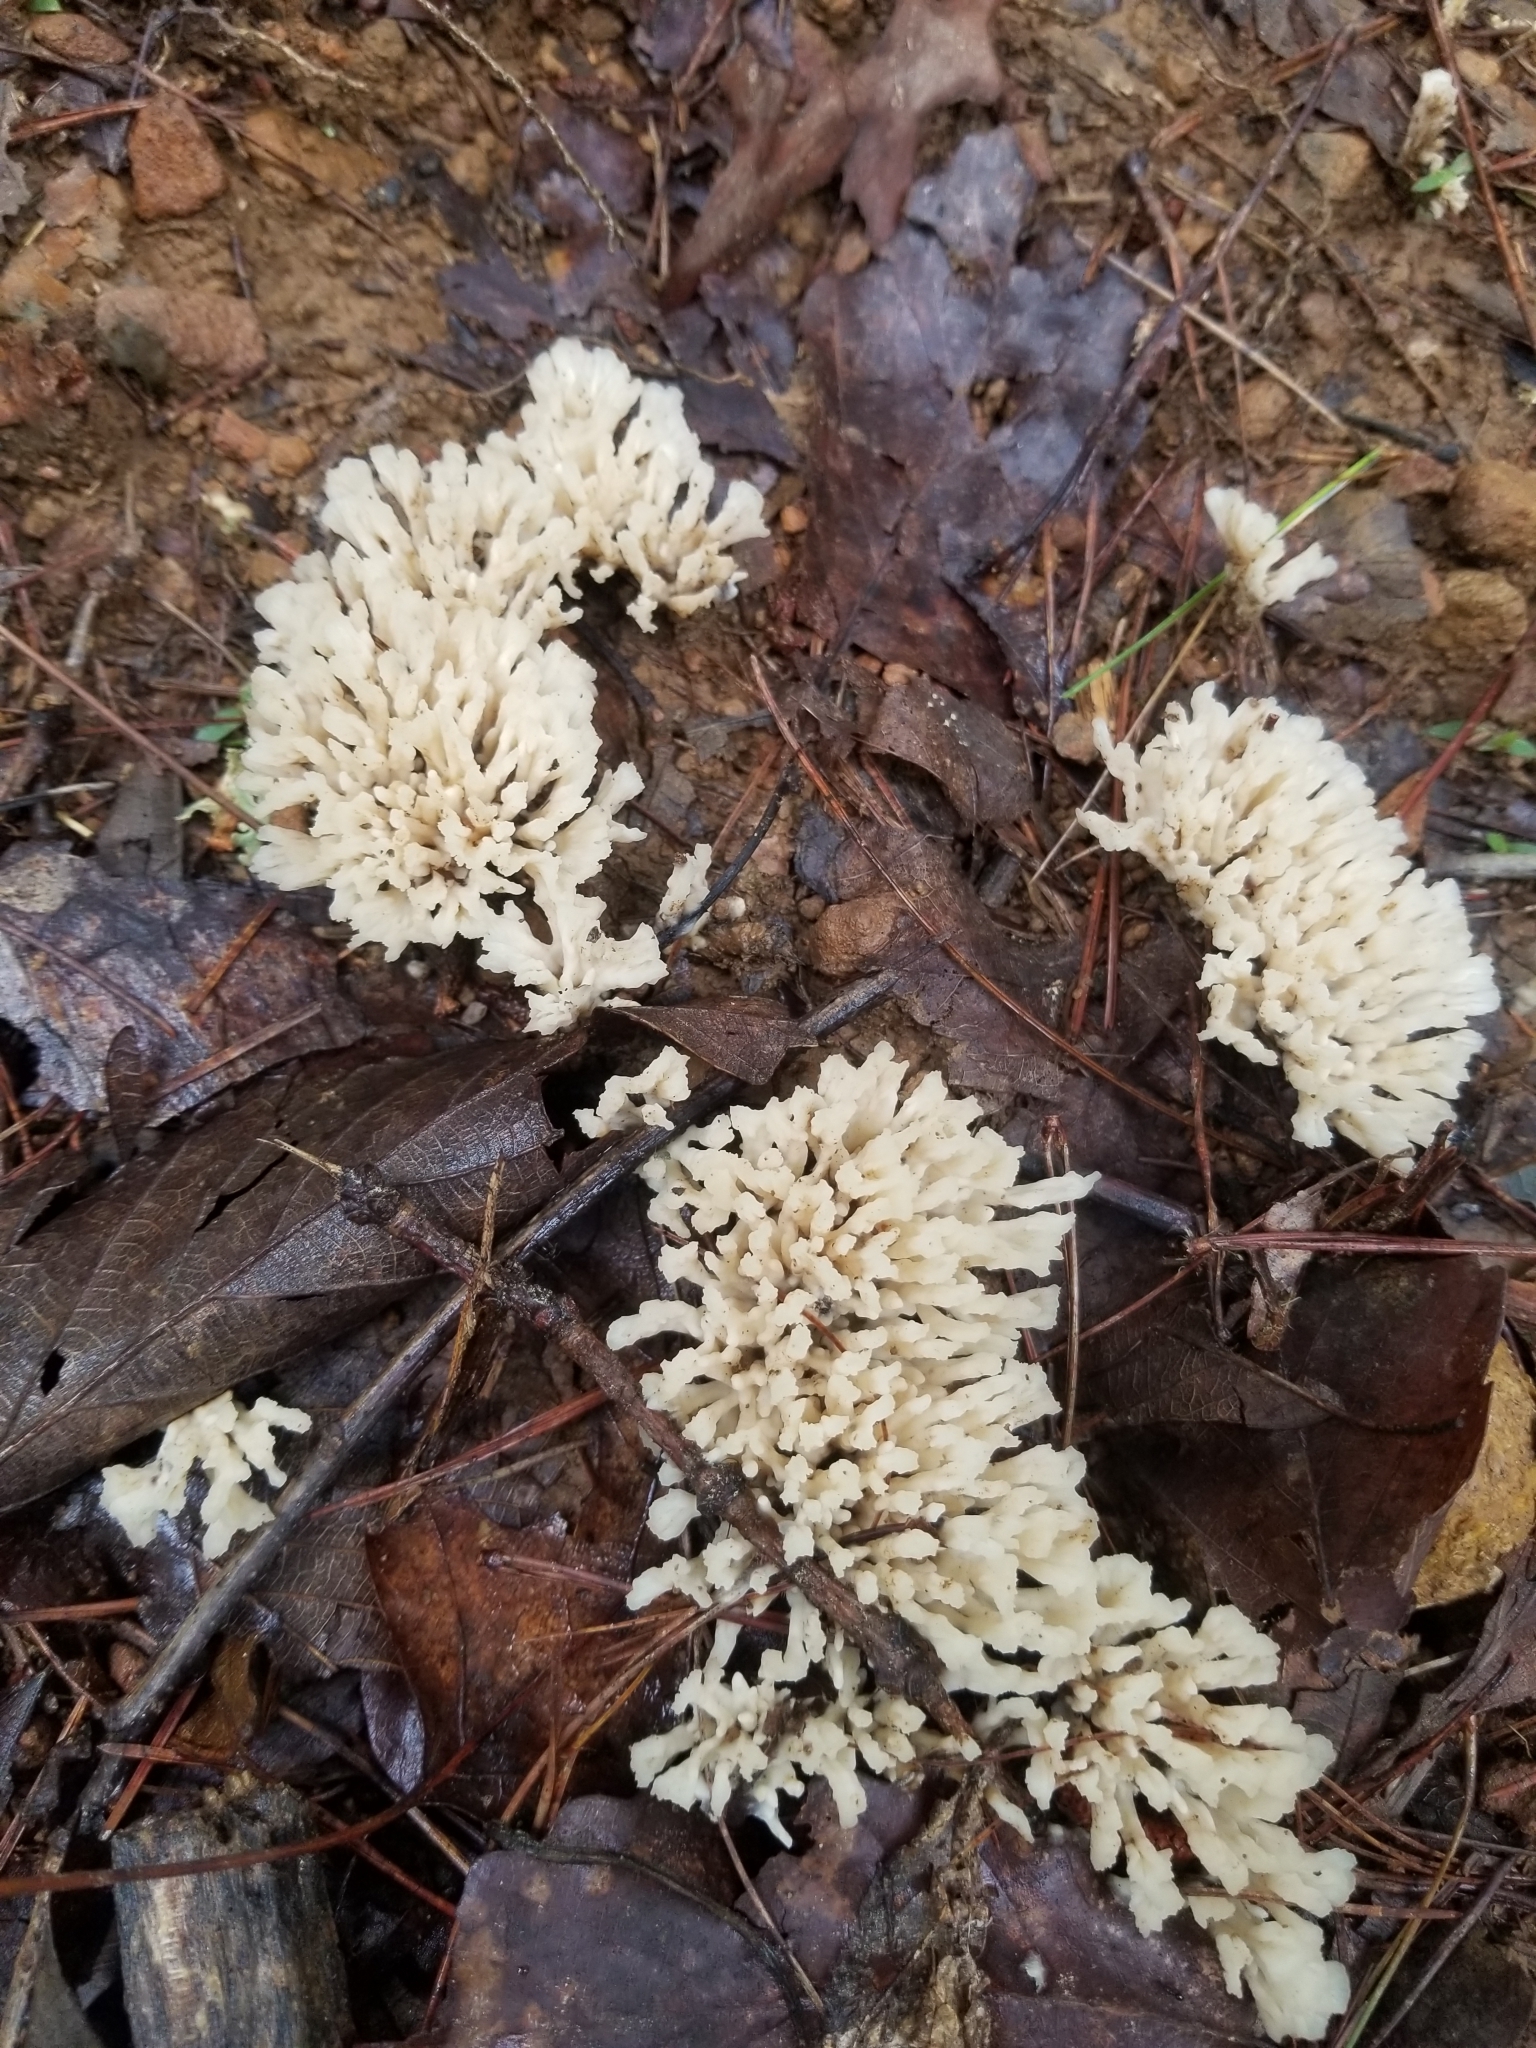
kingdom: Fungi
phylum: Basidiomycota
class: Agaricomycetes
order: Sebacinales
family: Sebacinaceae
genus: Sebacina
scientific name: Sebacina schweinitzii
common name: Jellied false coral fungus
